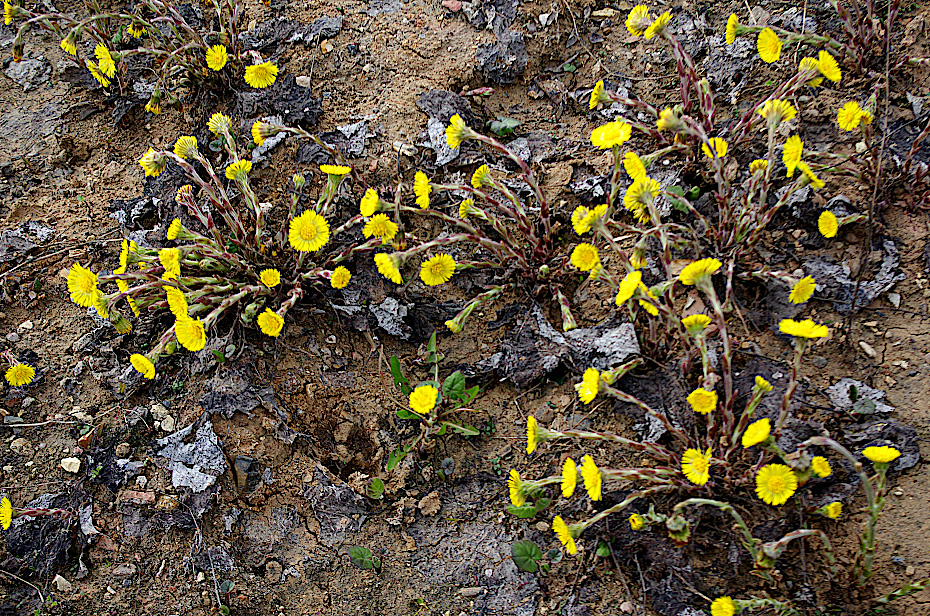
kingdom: Plantae
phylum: Tracheophyta
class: Magnoliopsida
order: Asterales
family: Asteraceae
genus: Tussilago
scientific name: Tussilago farfara
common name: Coltsfoot
